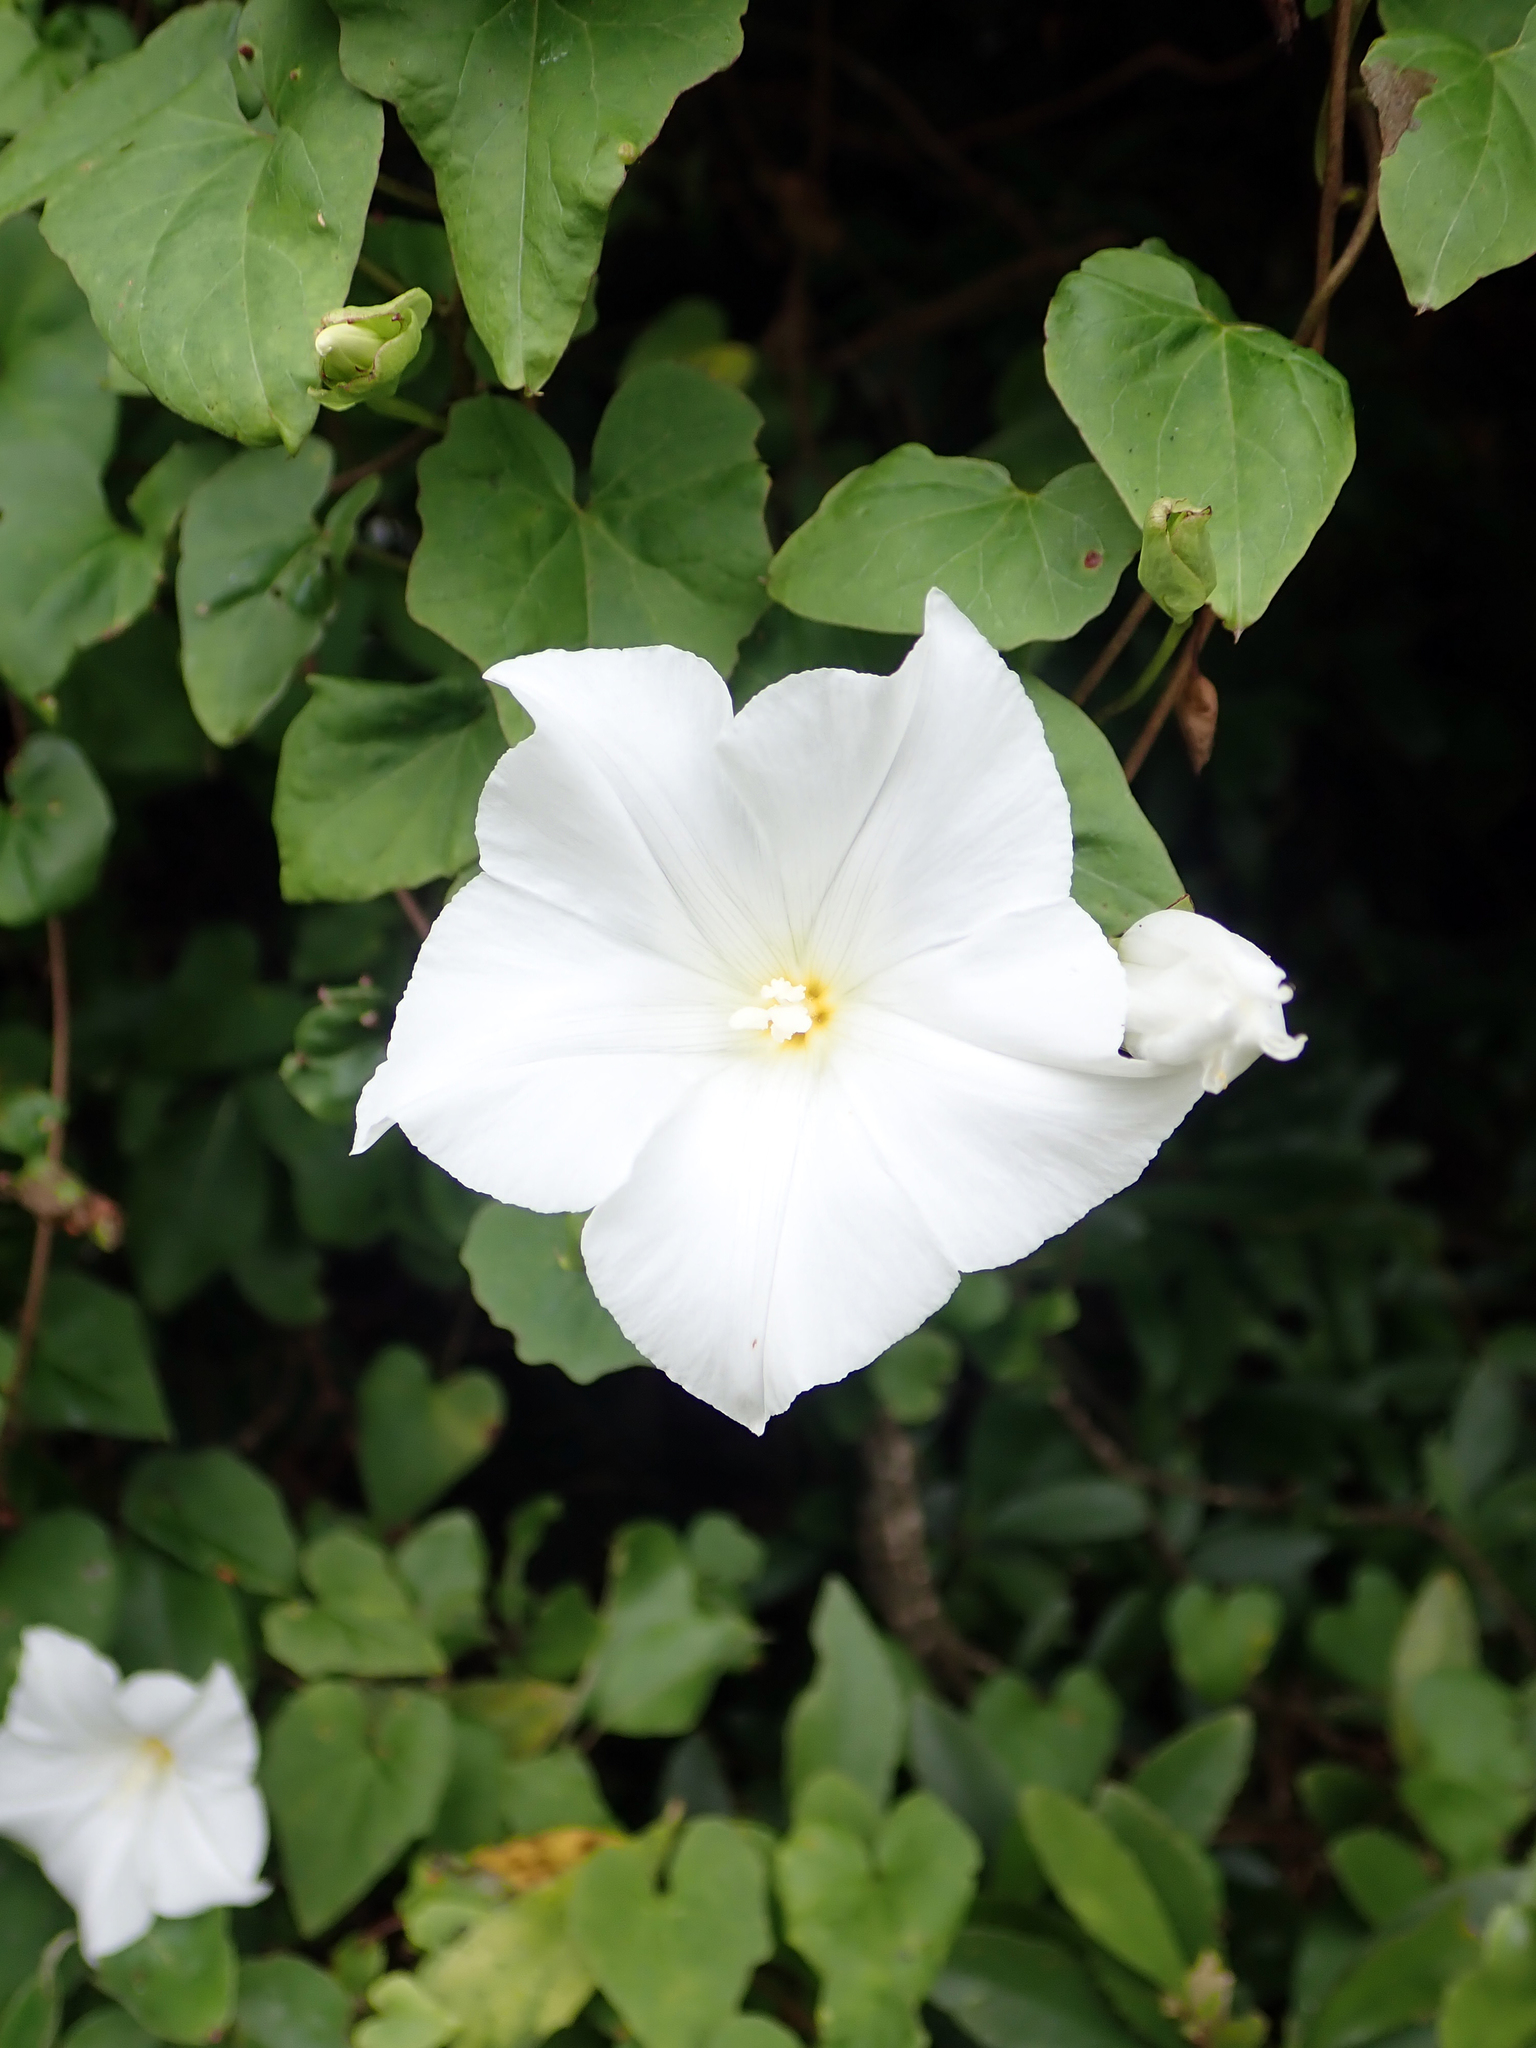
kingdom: Plantae
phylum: Tracheophyta
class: Magnoliopsida
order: Solanales
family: Convolvulaceae
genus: Calystegia
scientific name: Calystegia tuguriorum
